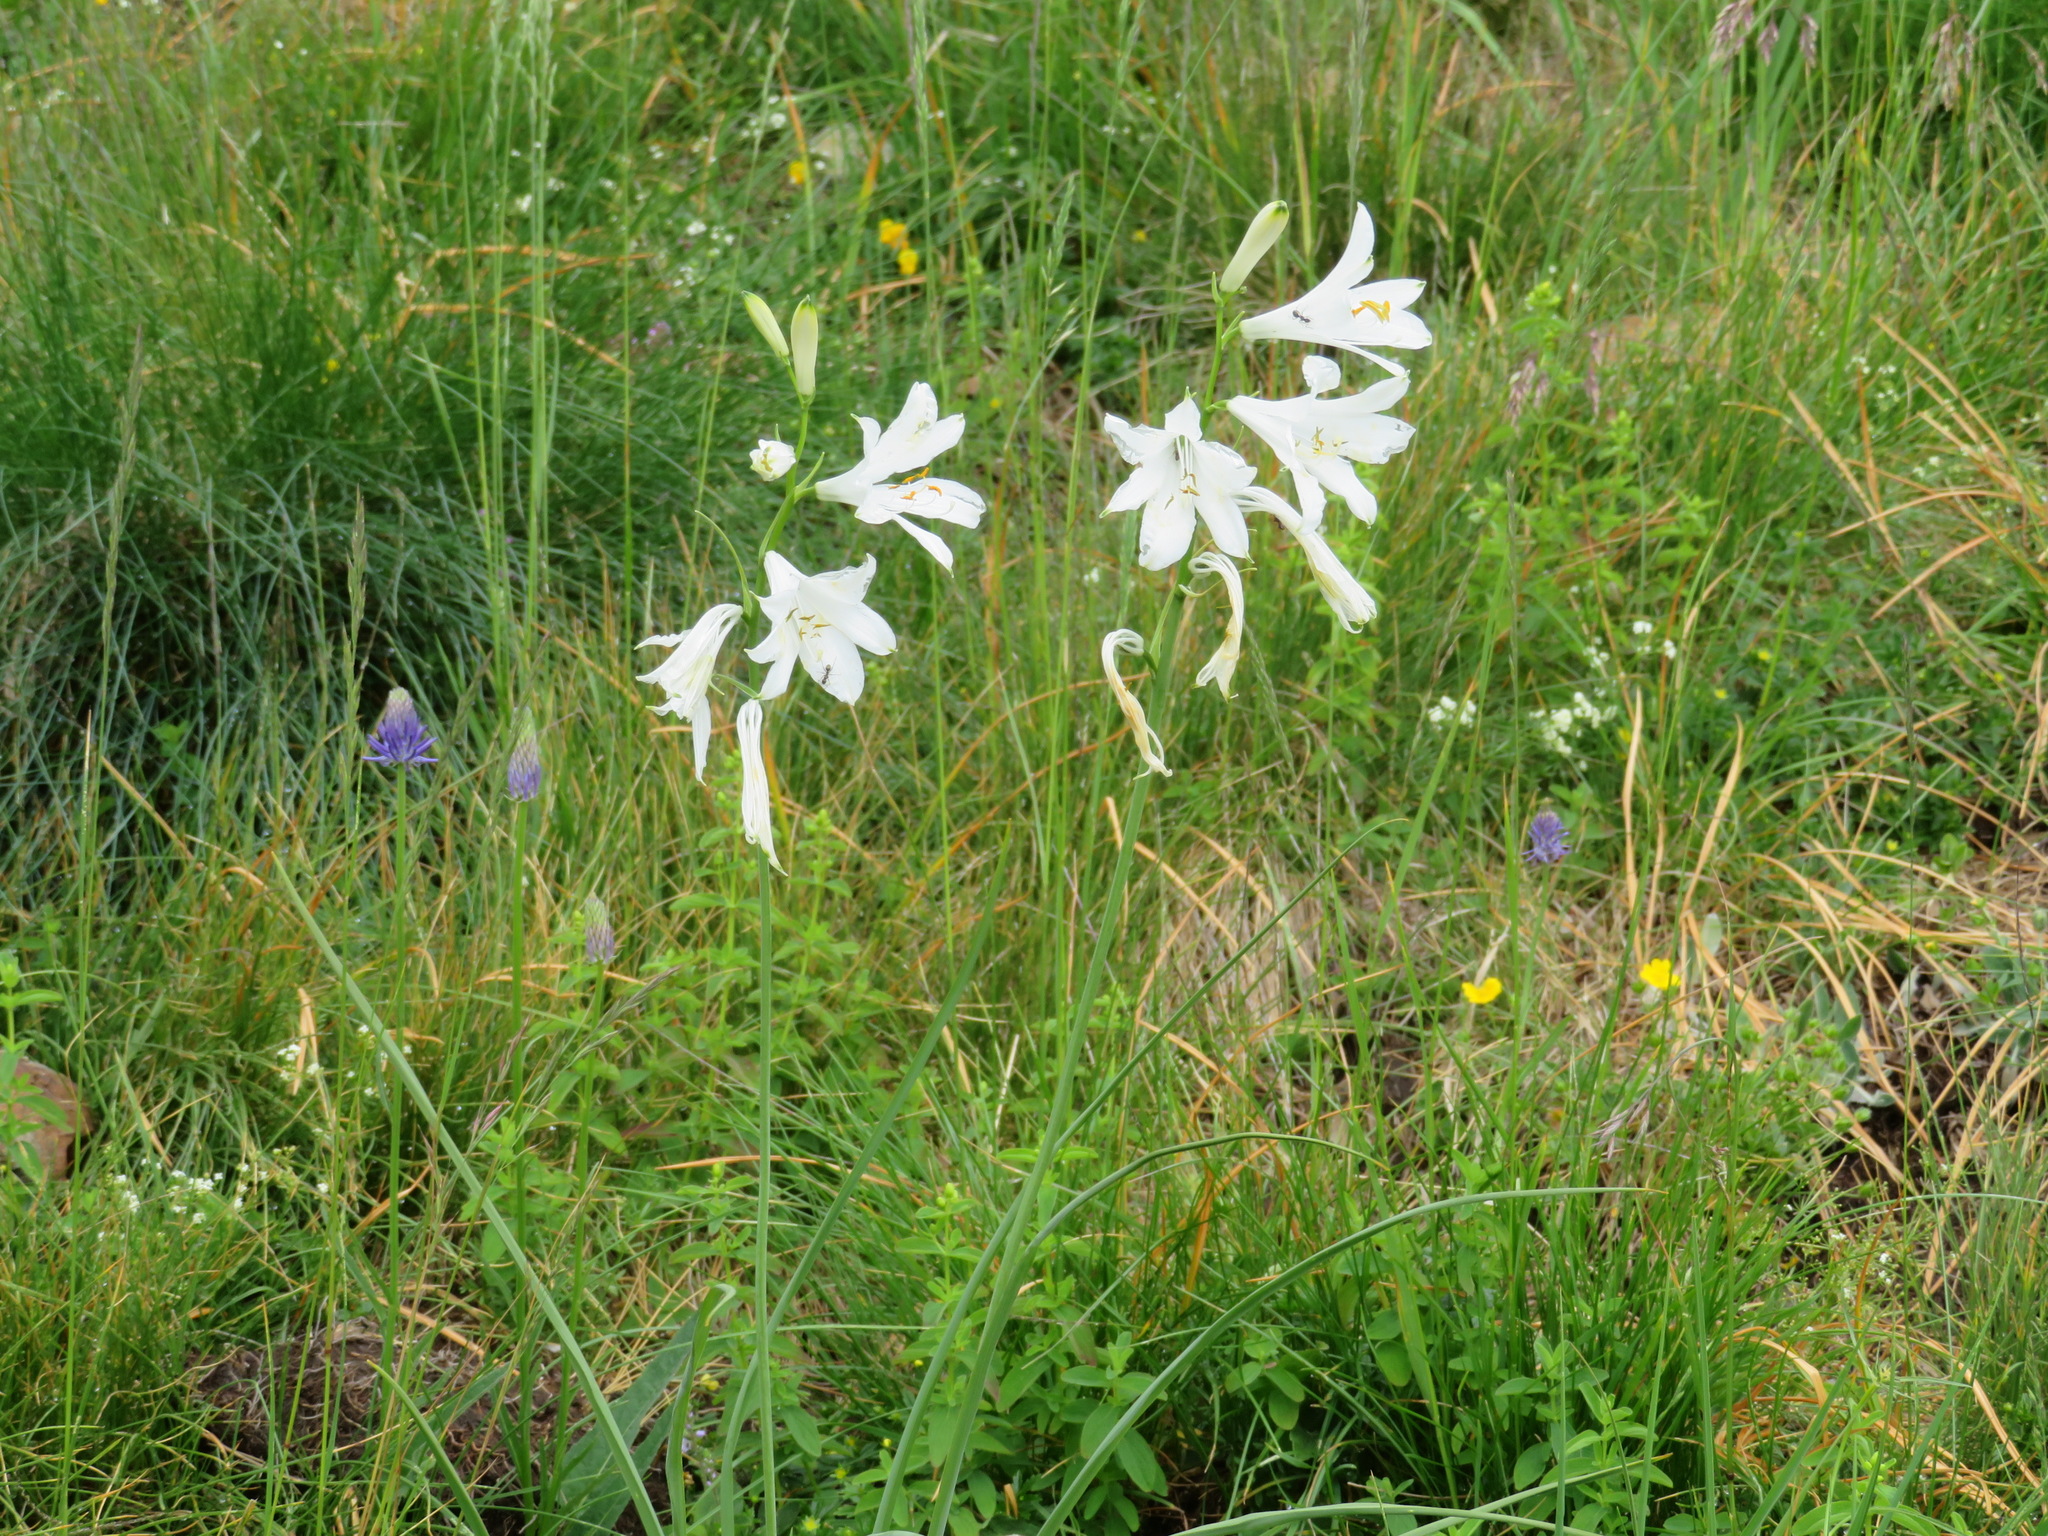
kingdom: Plantae
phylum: Tracheophyta
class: Liliopsida
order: Asparagales
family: Asparagaceae
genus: Paradisea
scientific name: Paradisea liliastrum
